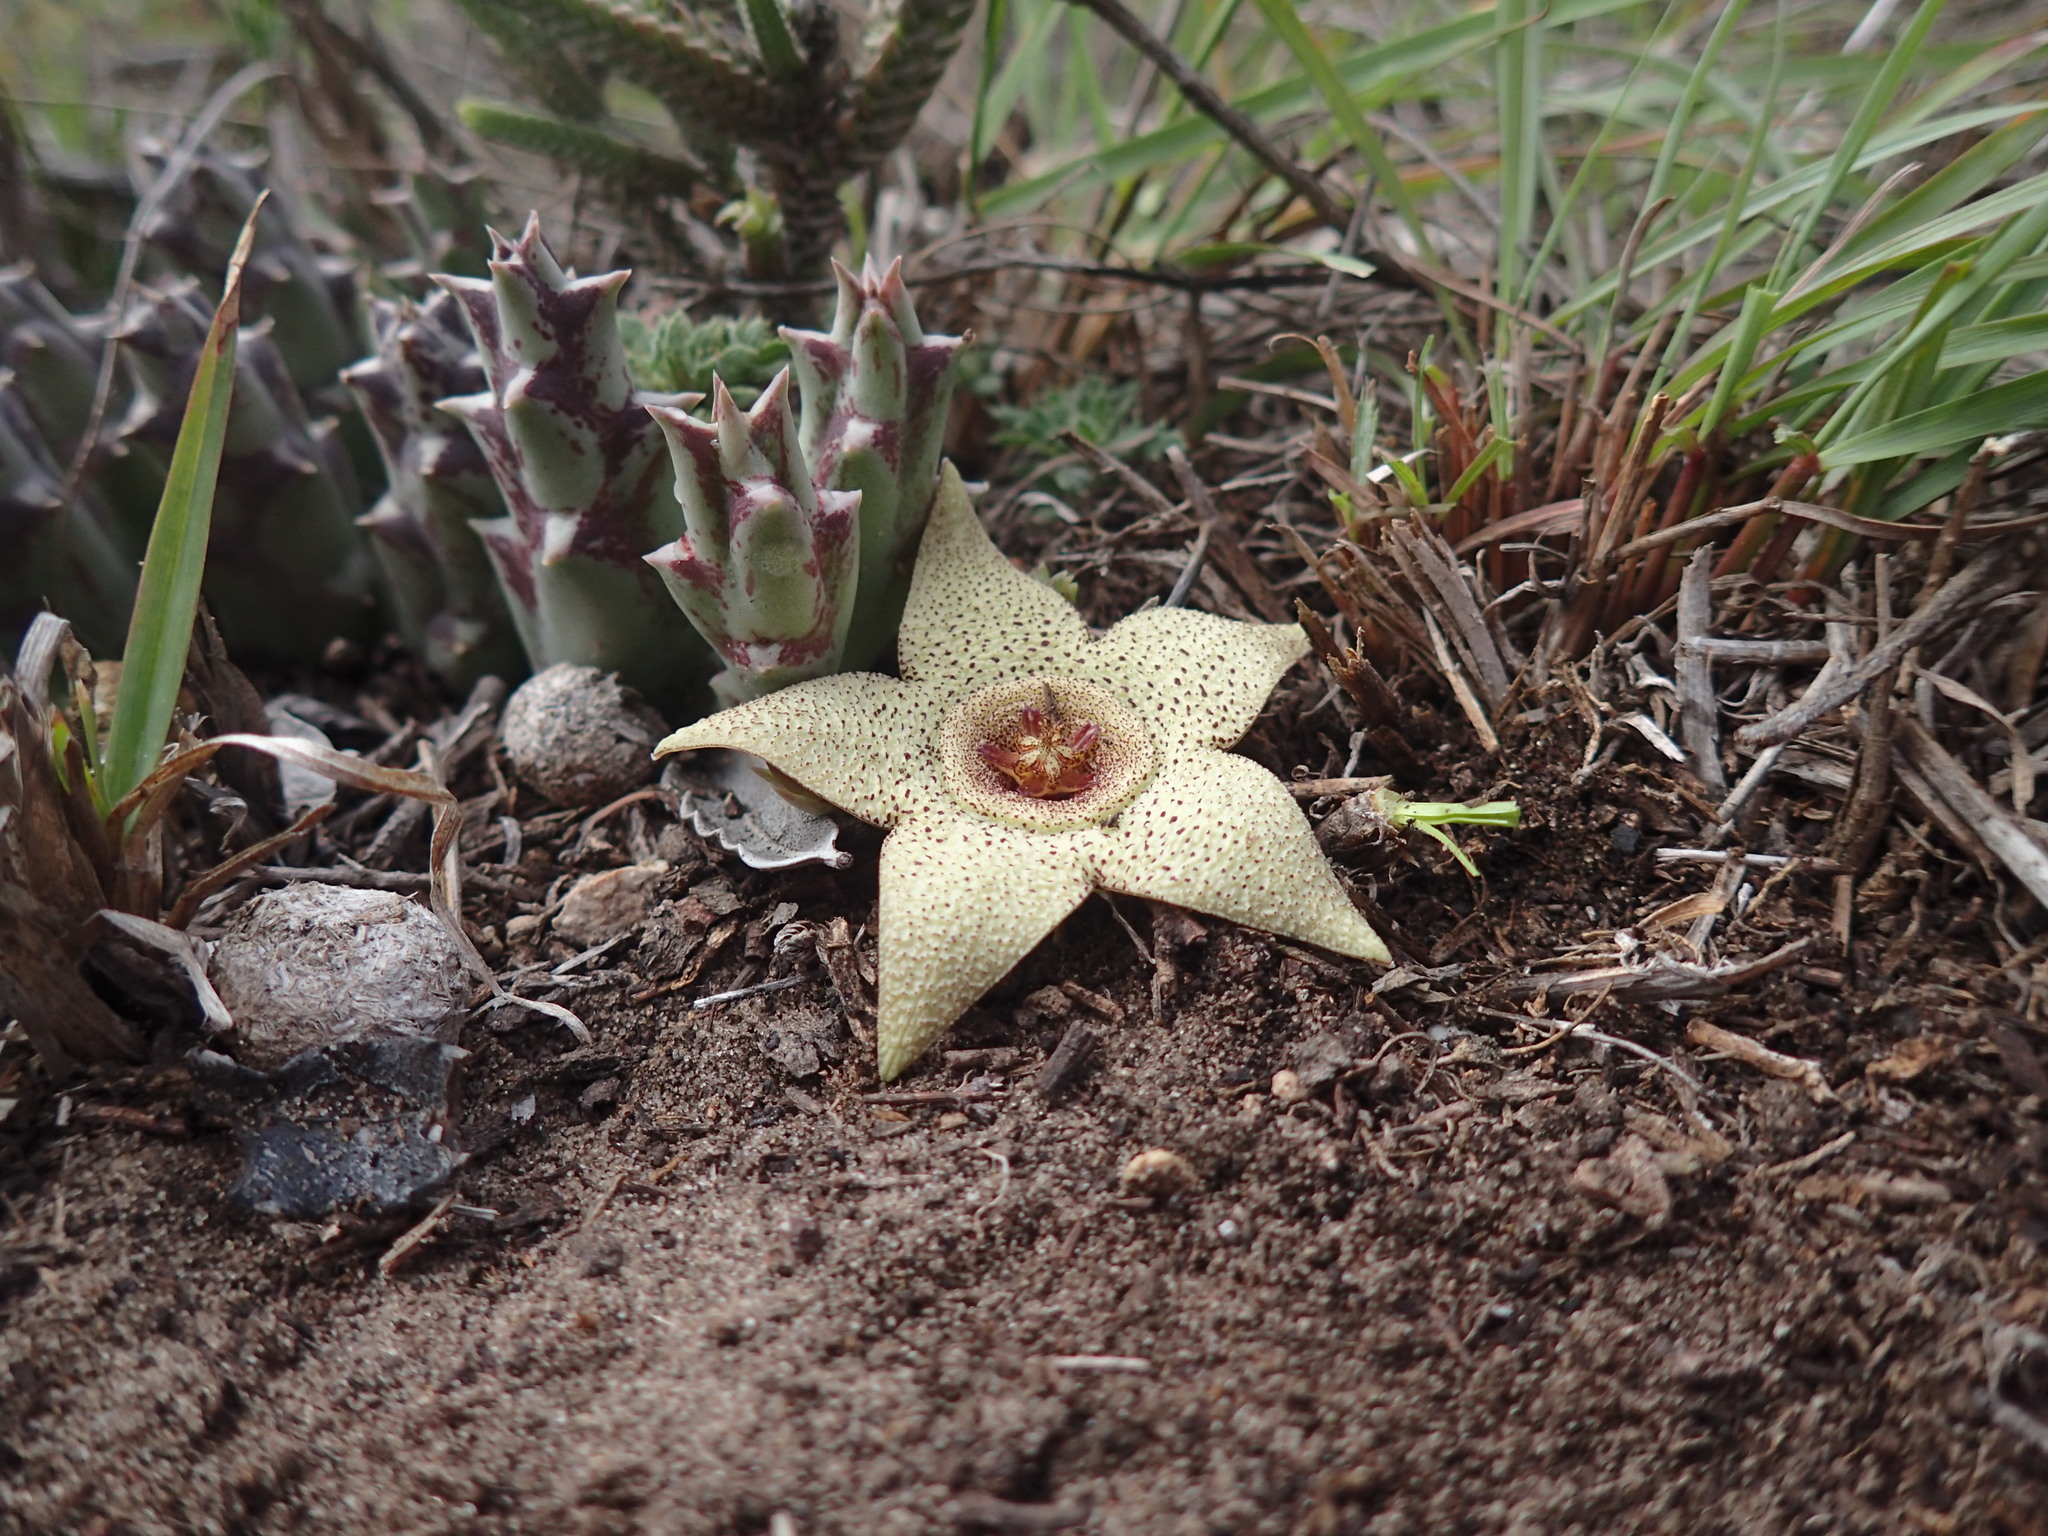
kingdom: Plantae
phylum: Tracheophyta
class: Magnoliopsida
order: Gentianales
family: Apocynaceae
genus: Ceropegia
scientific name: Ceropegia pulchella
